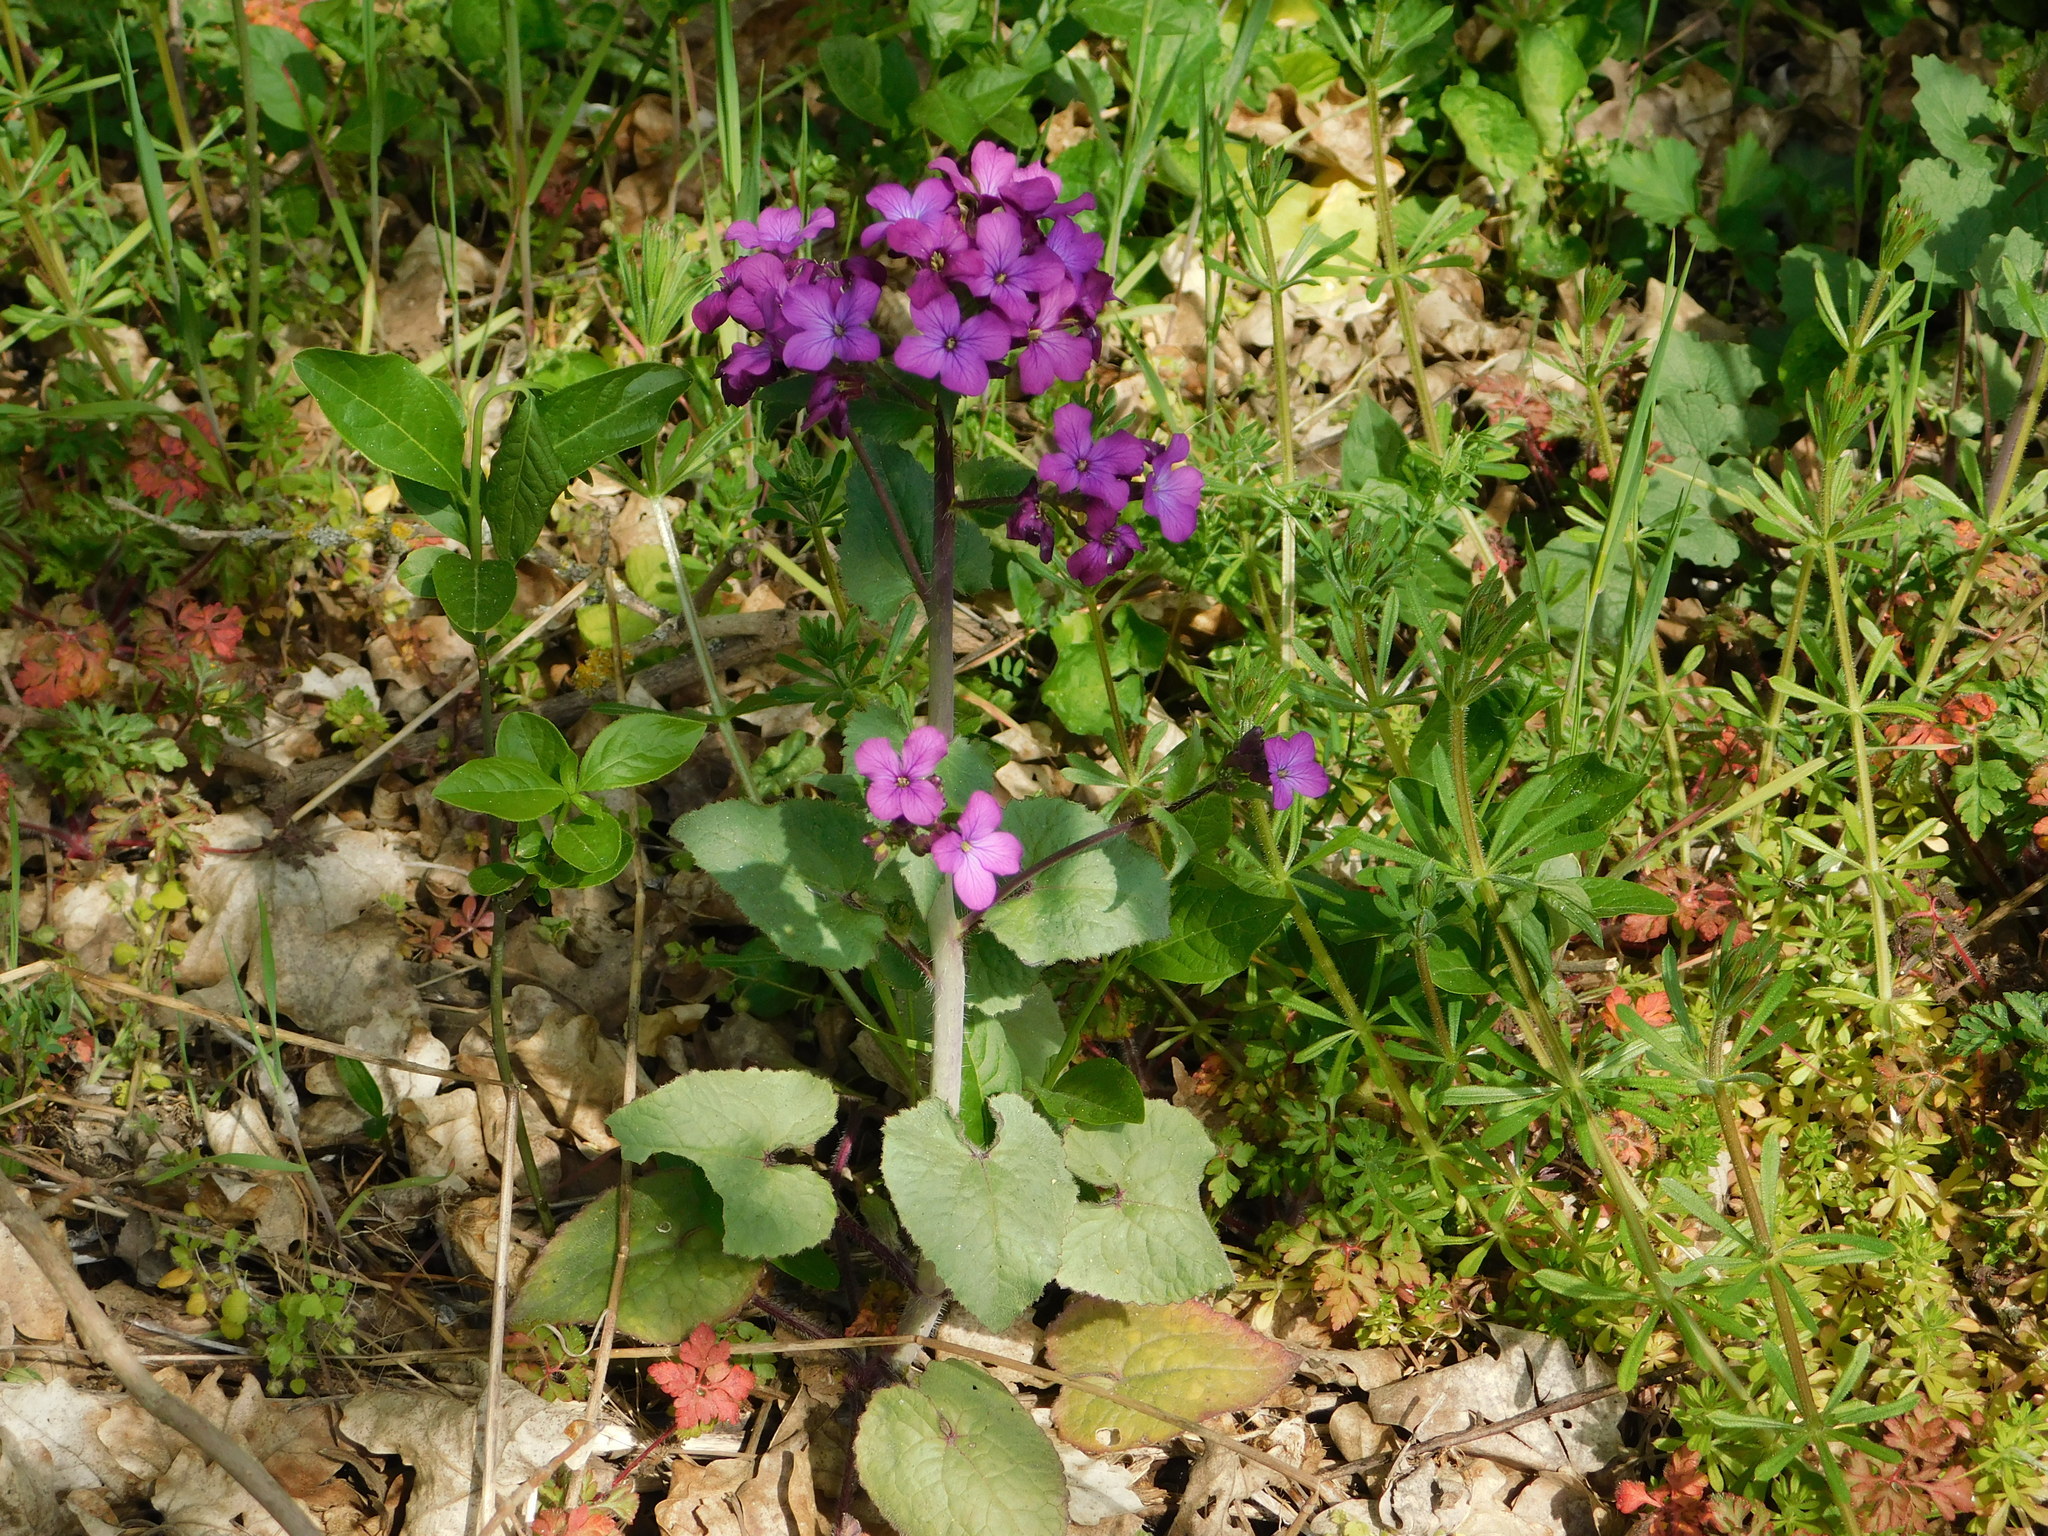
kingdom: Plantae
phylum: Tracheophyta
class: Magnoliopsida
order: Brassicales
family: Brassicaceae
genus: Lunaria
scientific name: Lunaria annua
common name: Honesty
